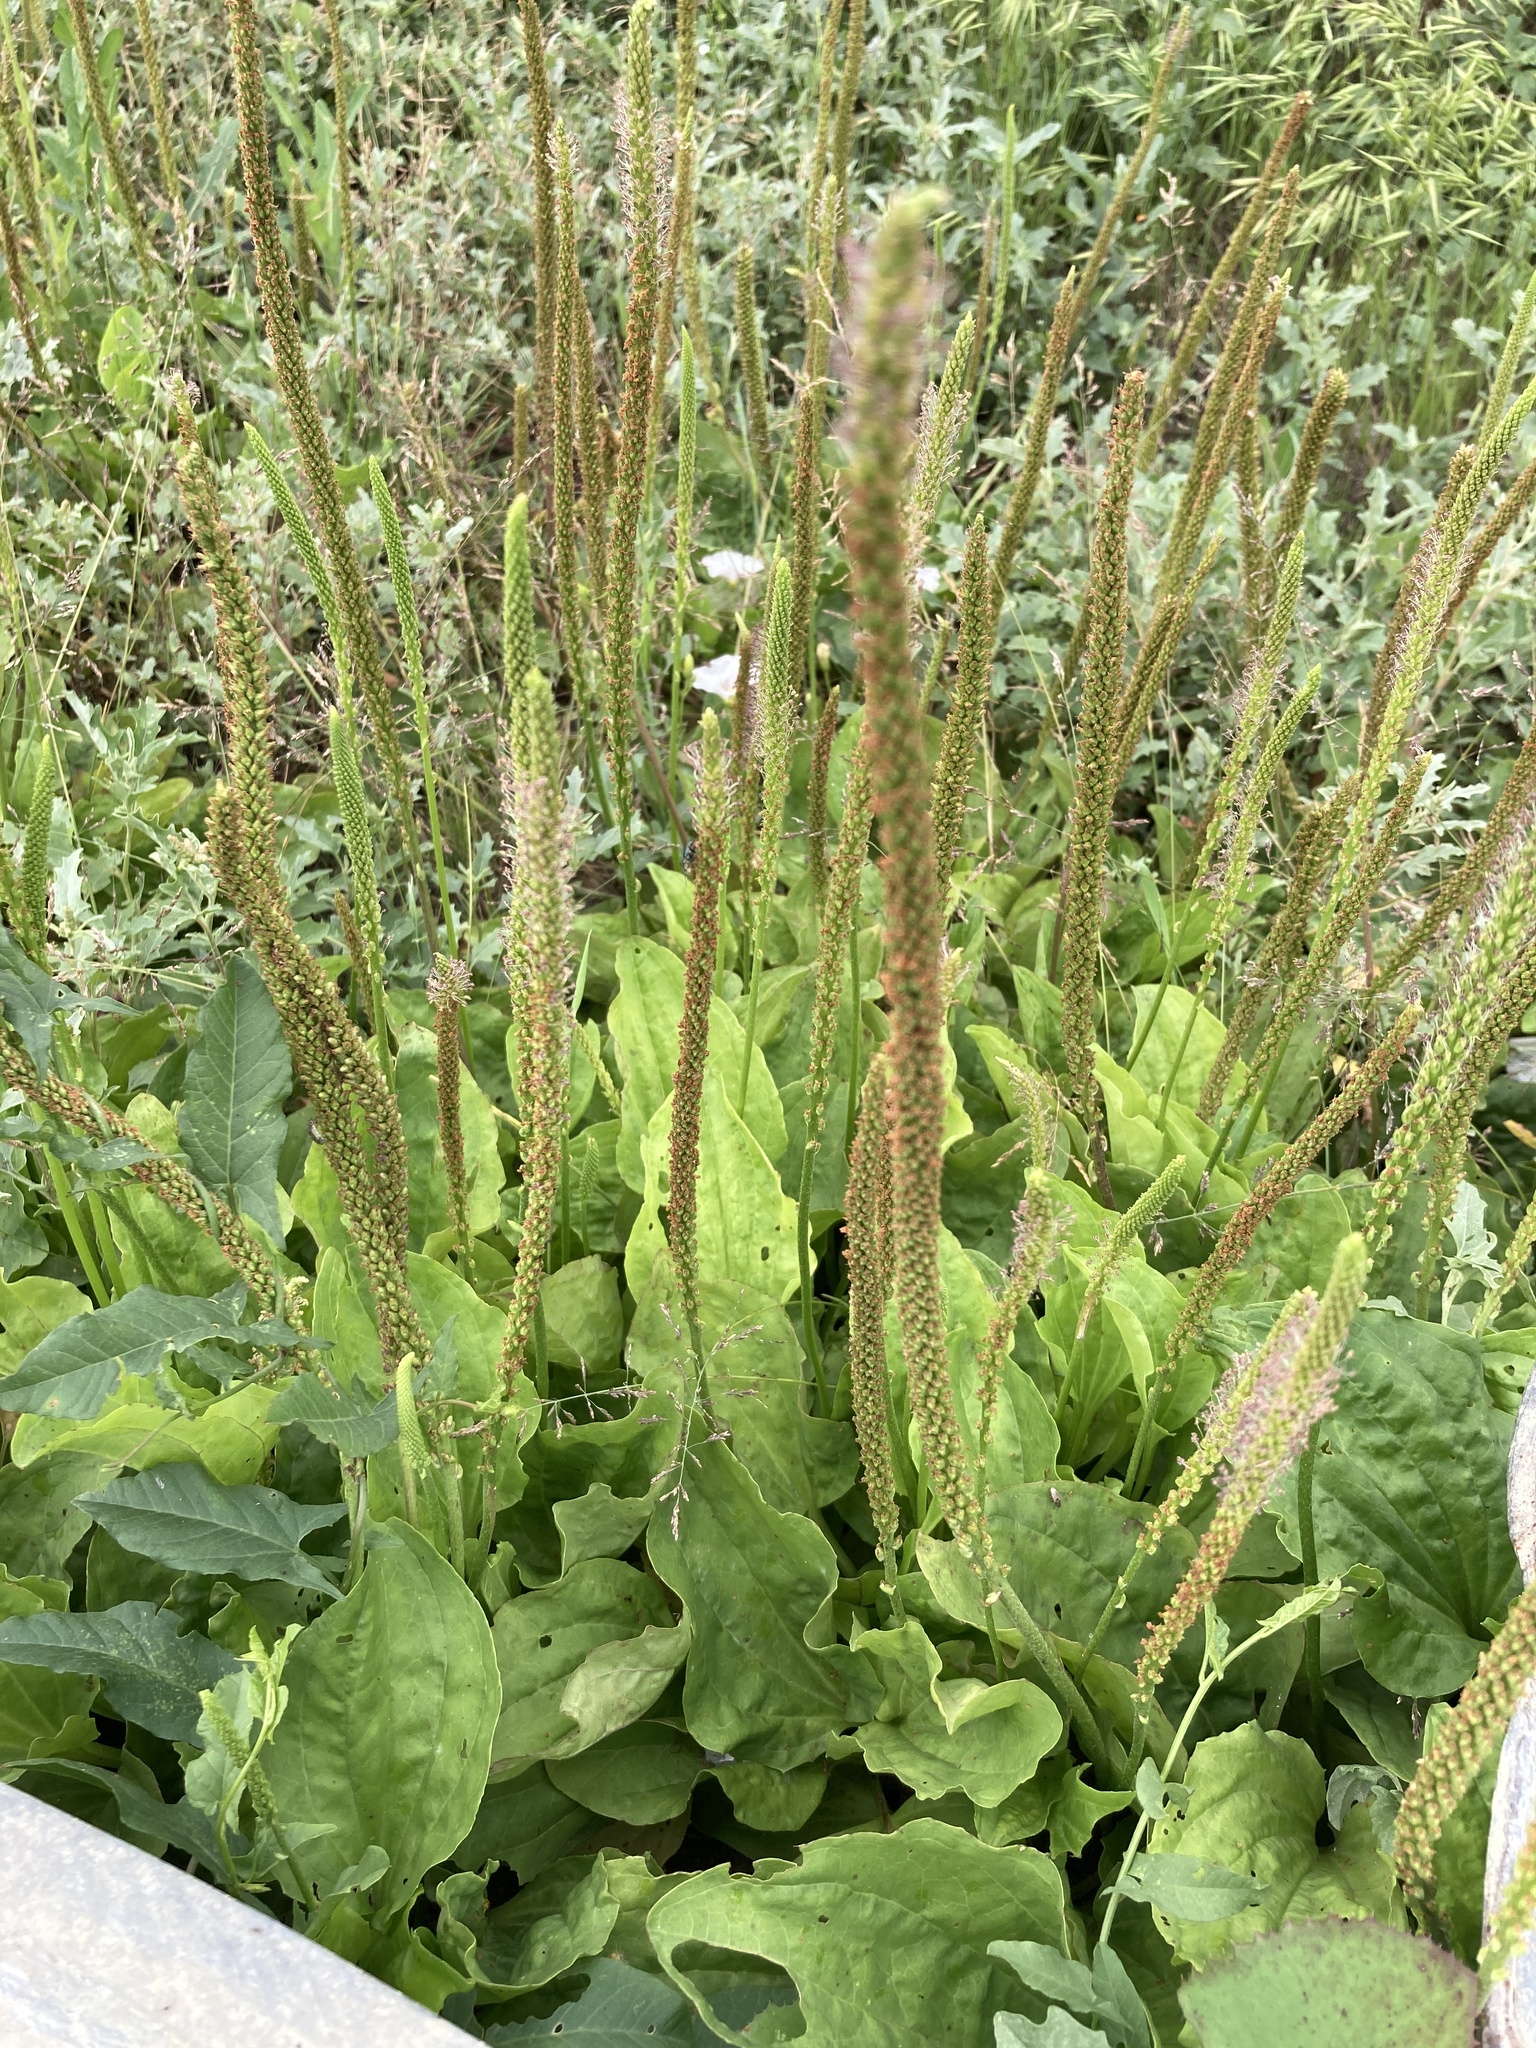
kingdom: Plantae
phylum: Tracheophyta
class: Magnoliopsida
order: Lamiales
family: Plantaginaceae
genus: Plantago
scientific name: Plantago major
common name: Common plantain
